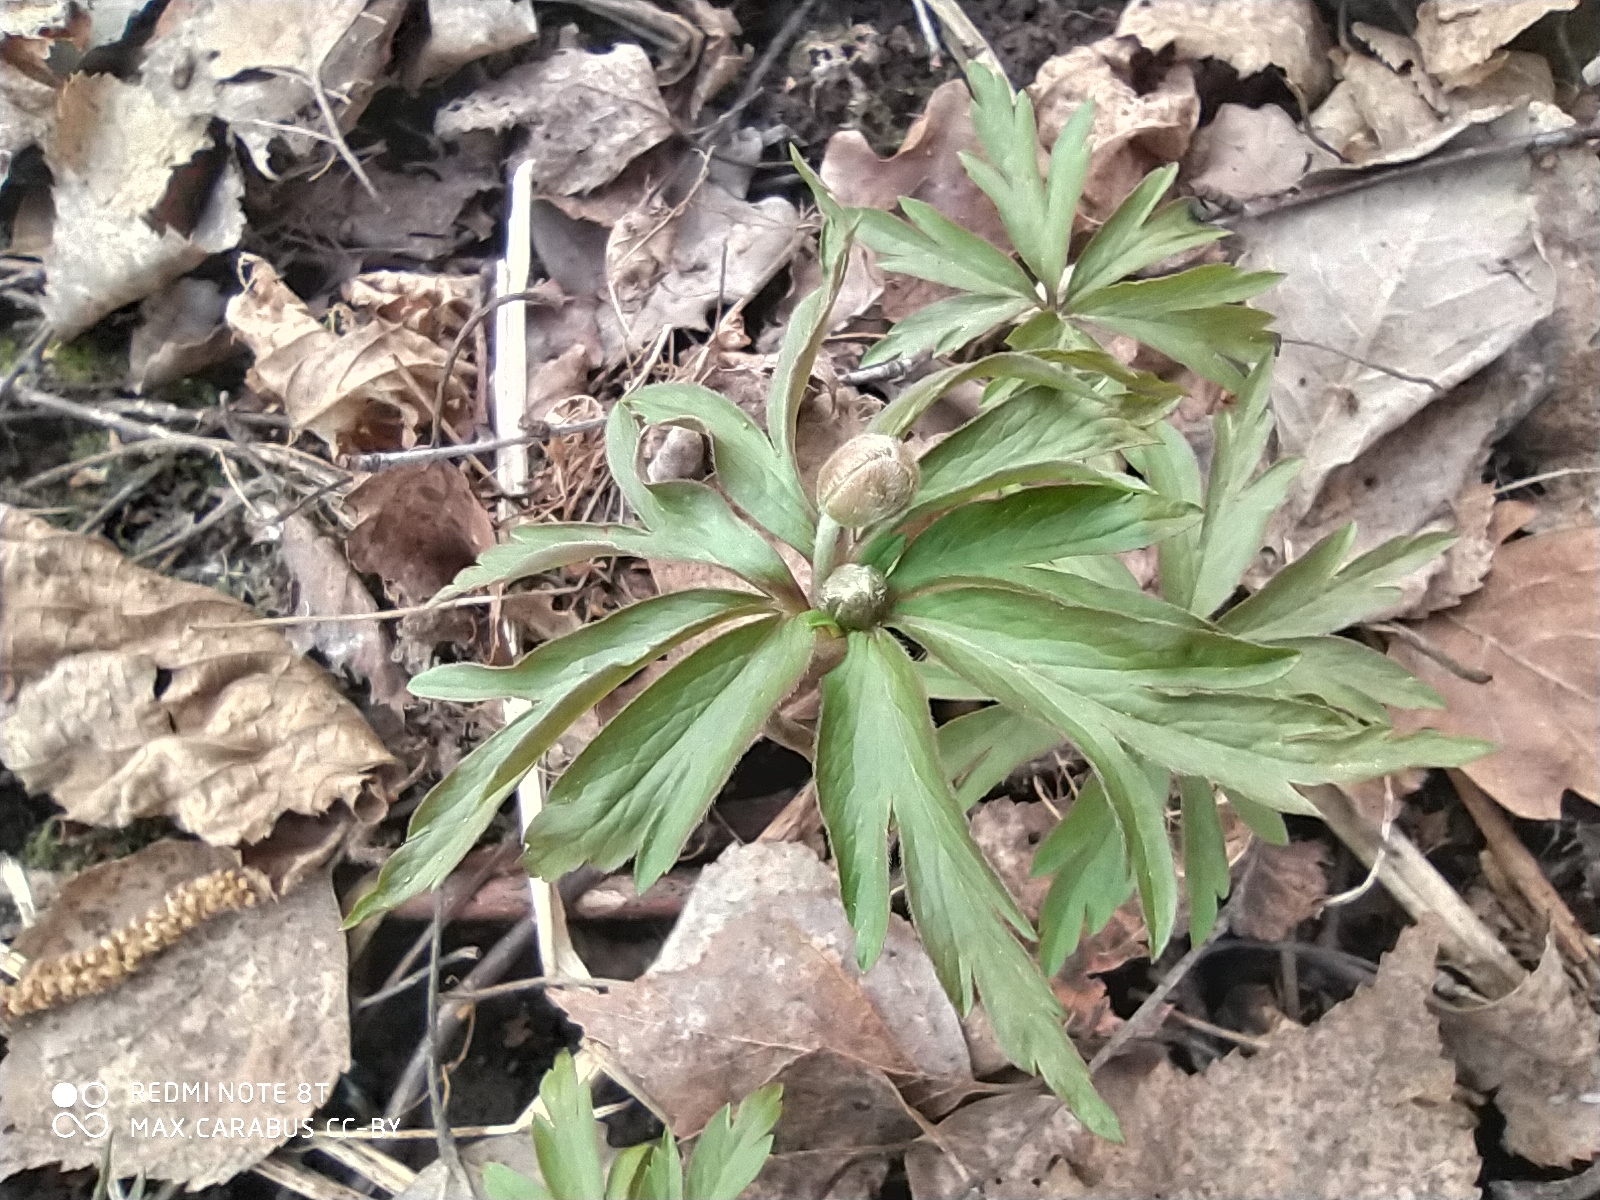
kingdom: Plantae
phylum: Tracheophyta
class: Magnoliopsida
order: Ranunculales
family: Ranunculaceae
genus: Anemone
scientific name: Anemone ranunculoides
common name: Yellow anemone
